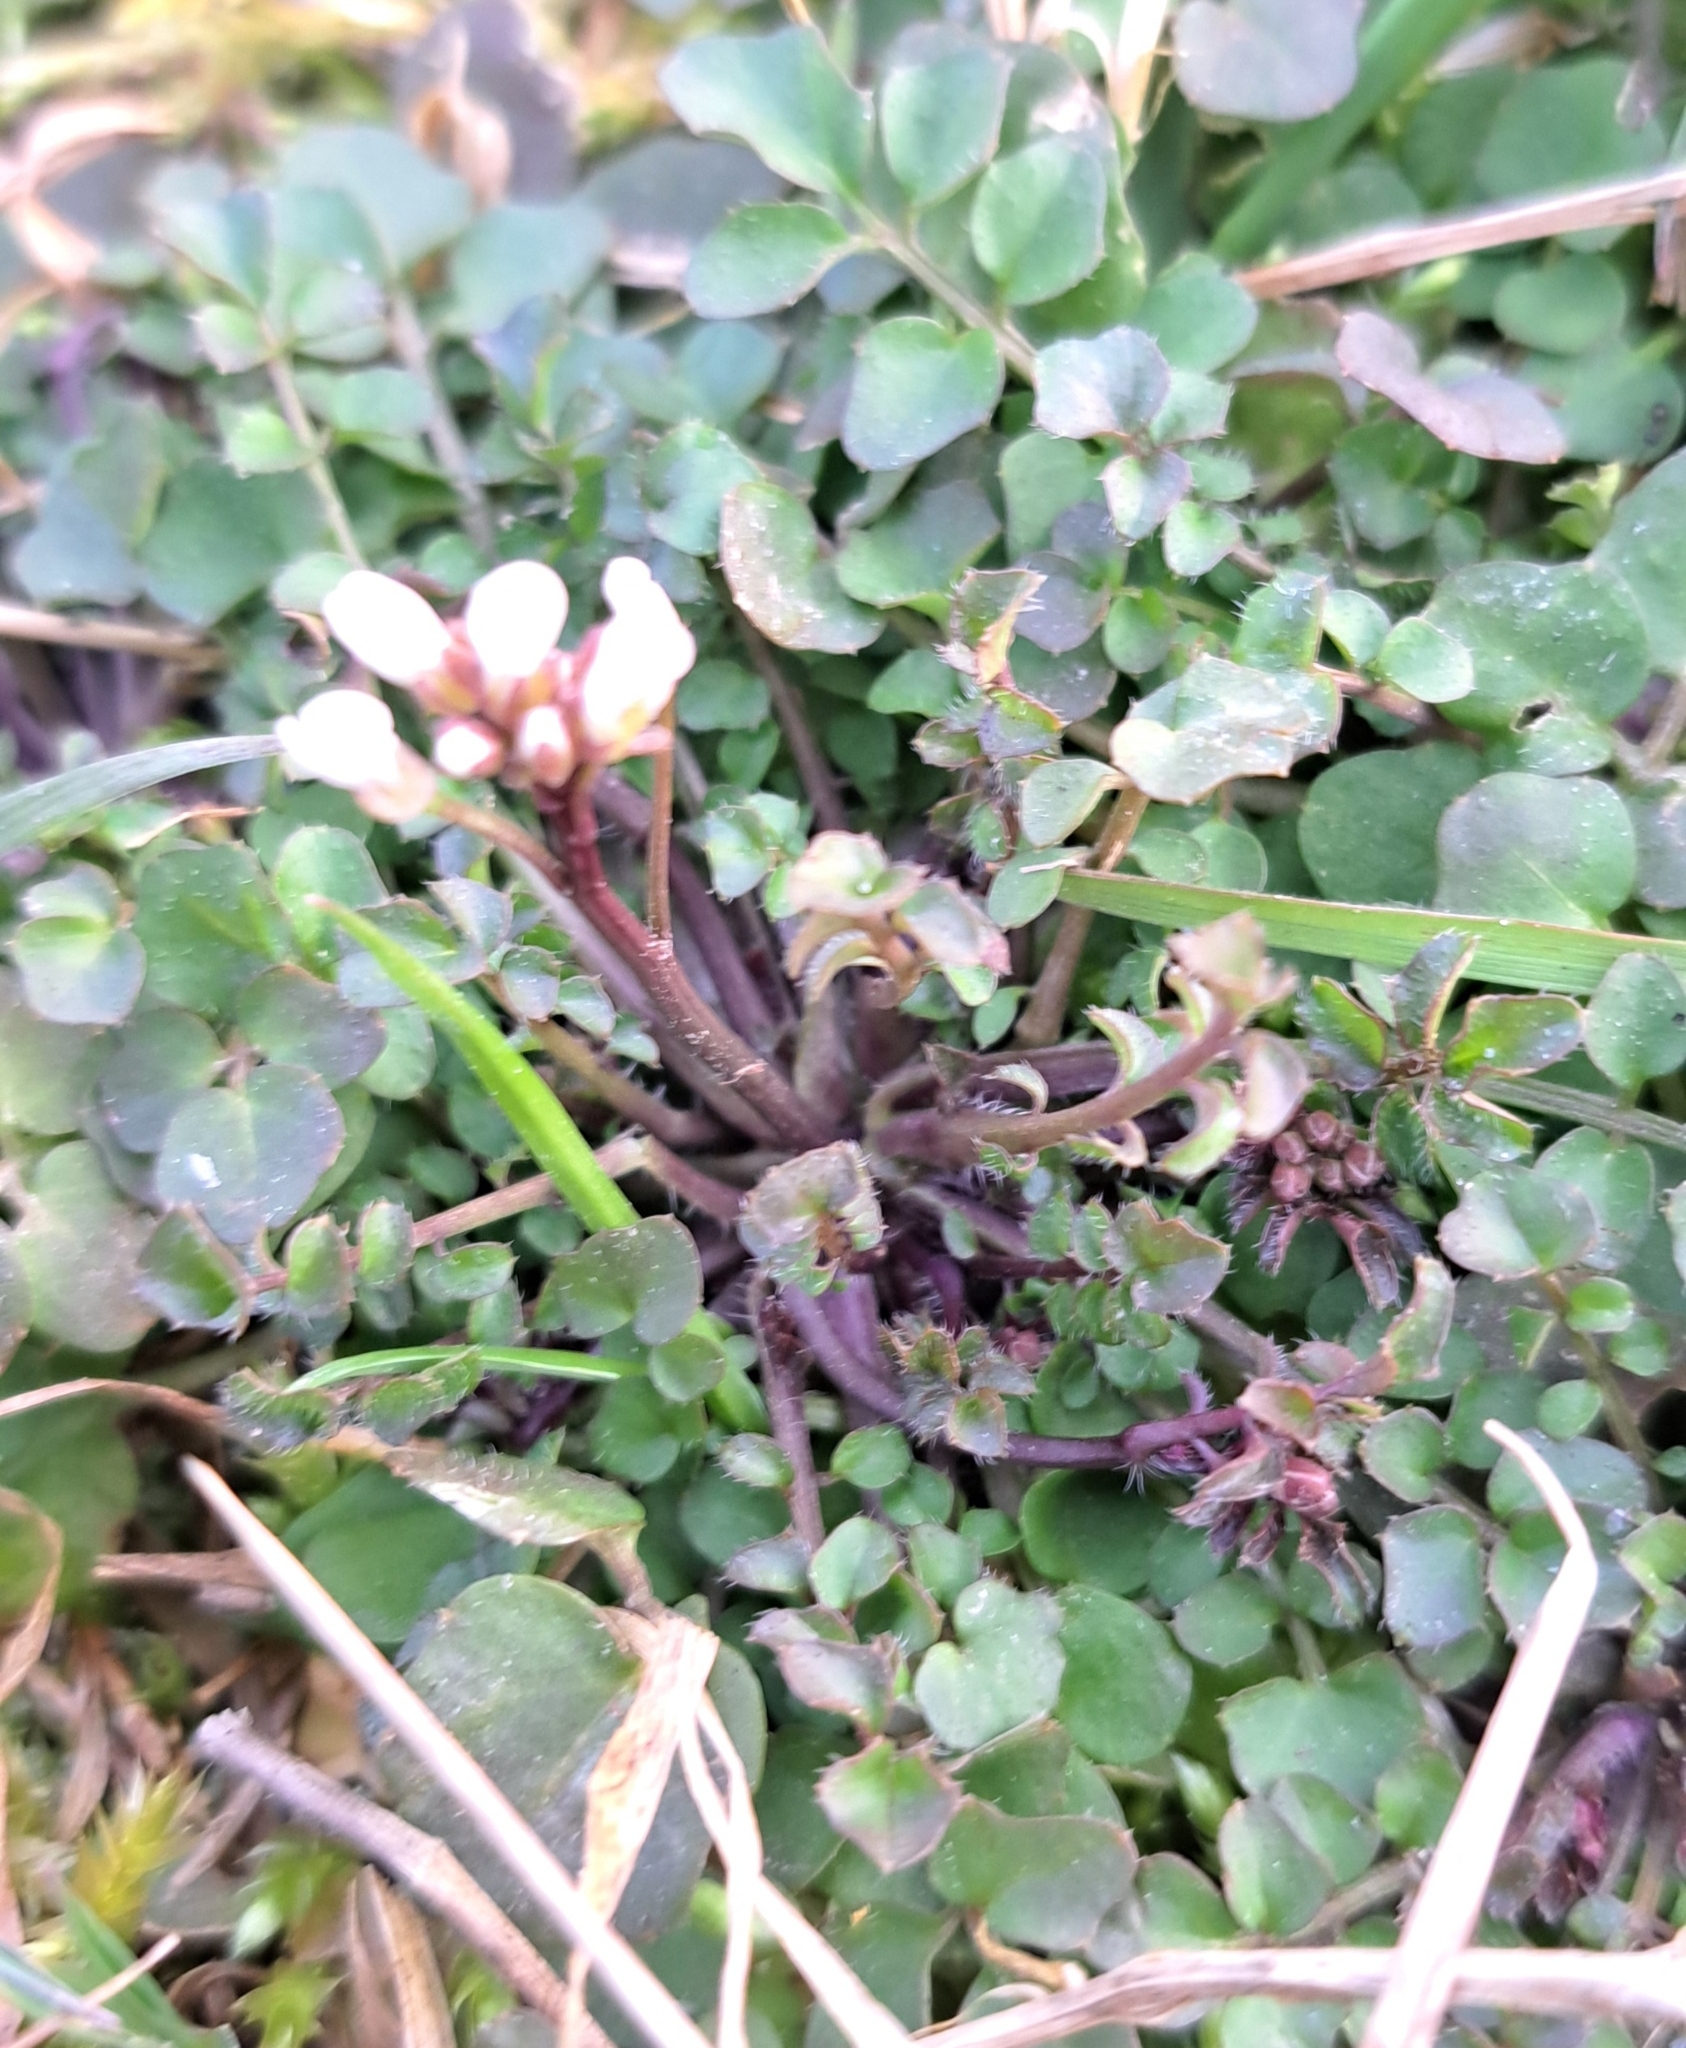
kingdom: Plantae
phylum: Tracheophyta
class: Magnoliopsida
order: Brassicales
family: Brassicaceae
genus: Cardamine
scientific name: Cardamine hirsuta
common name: Hairy bittercress
